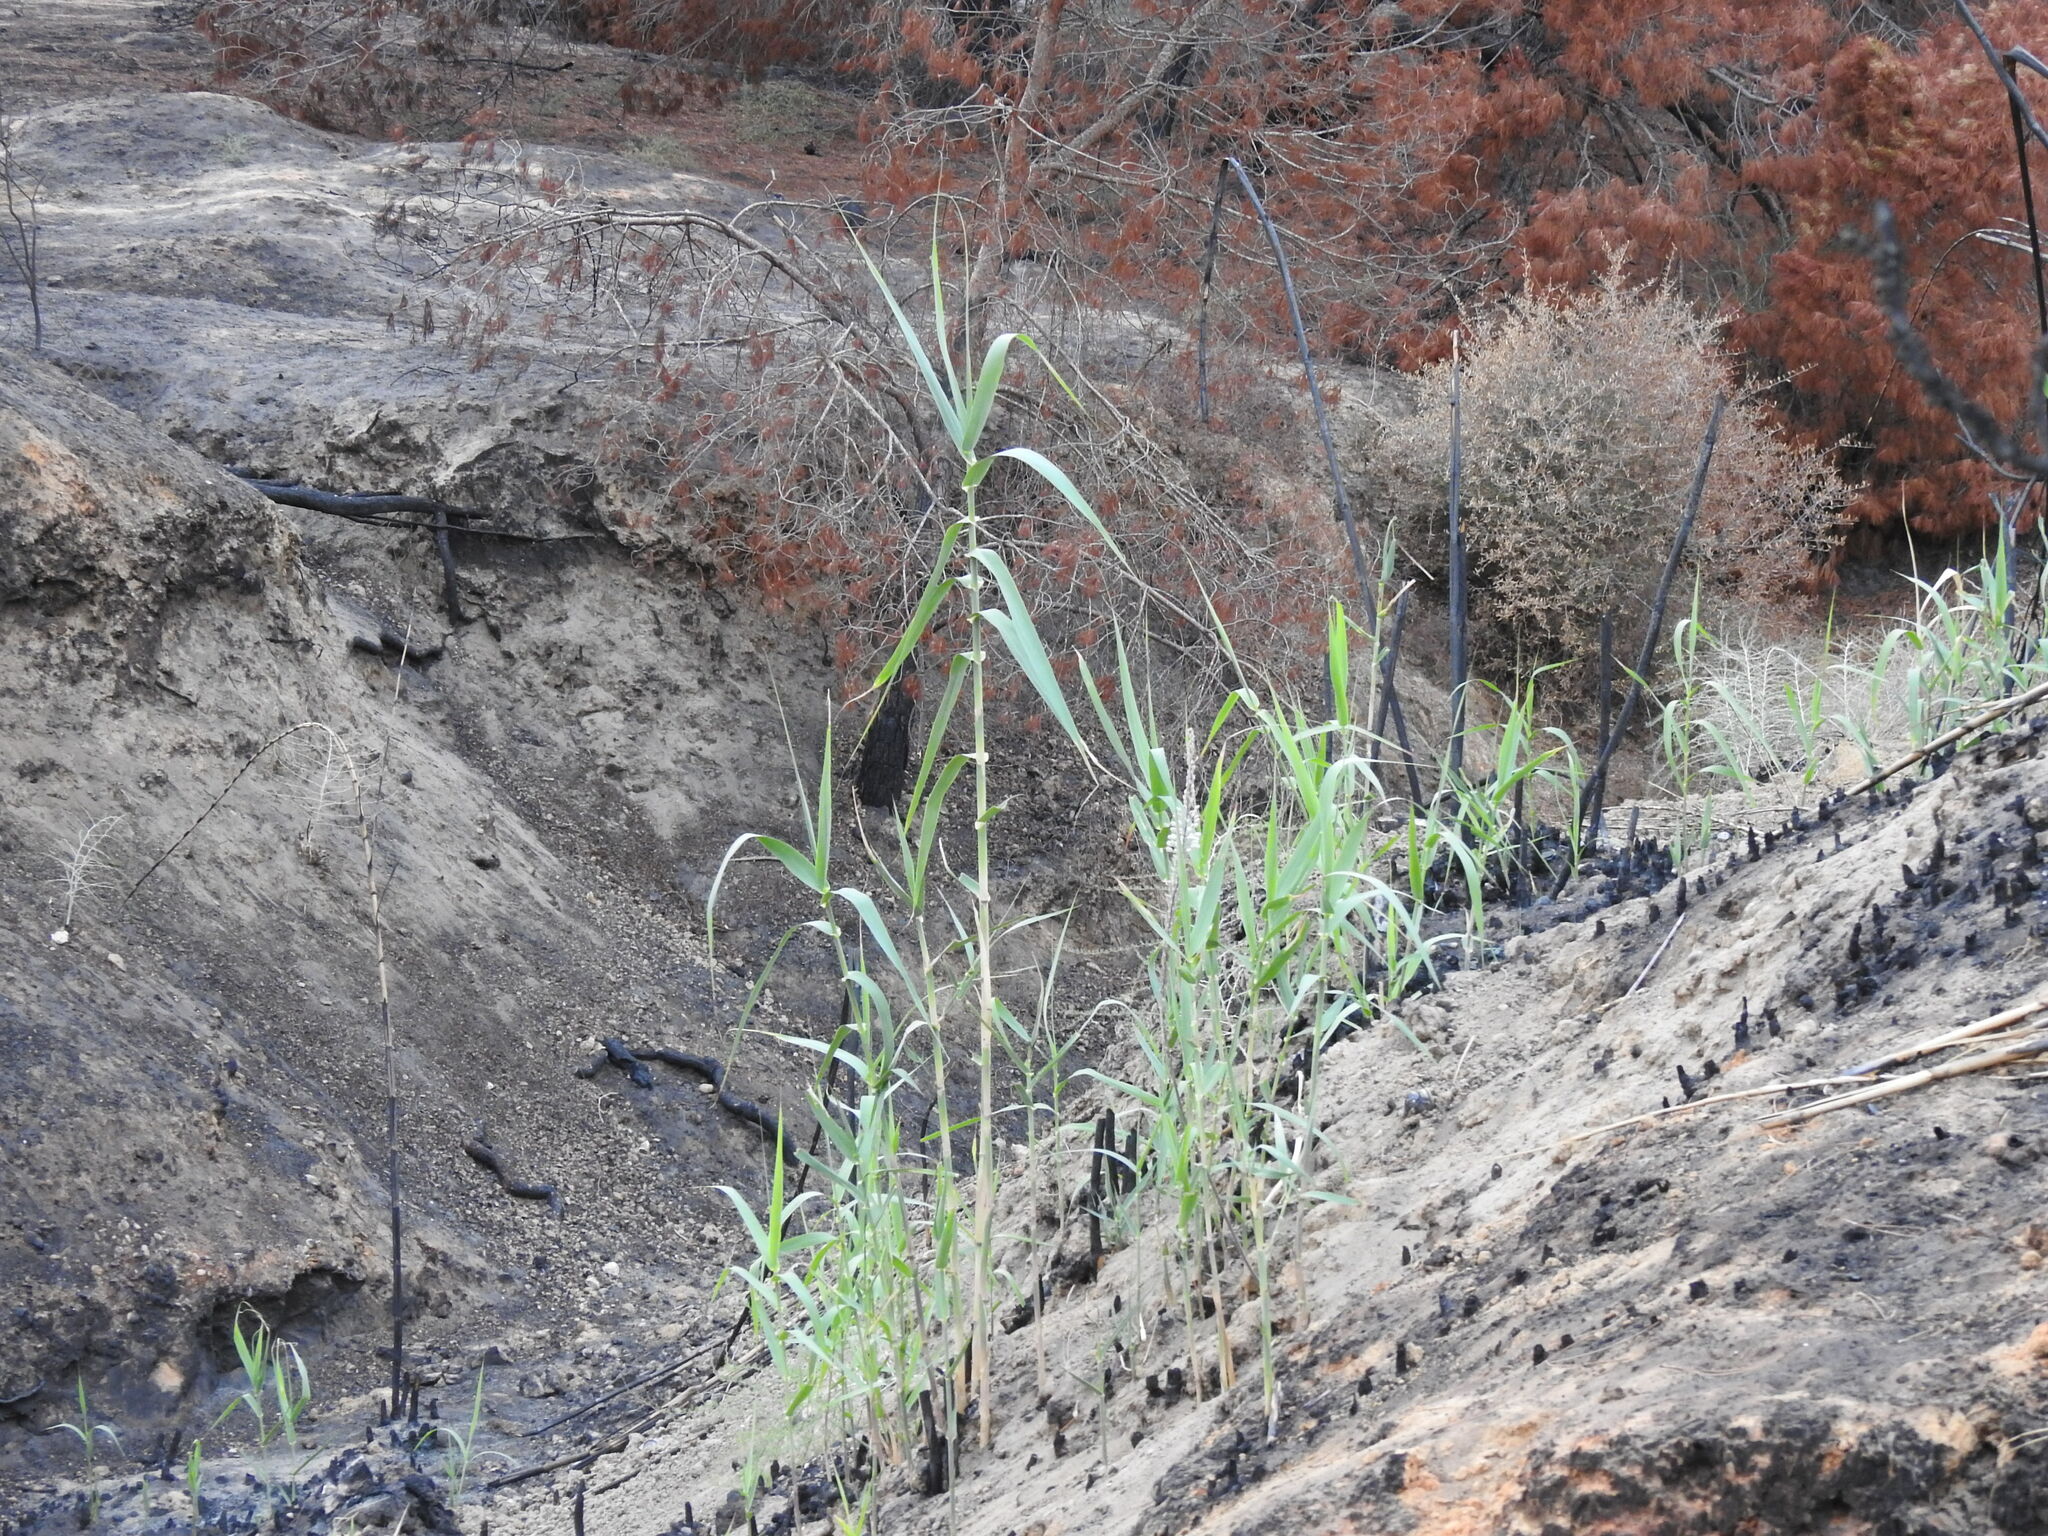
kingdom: Plantae
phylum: Tracheophyta
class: Liliopsida
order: Poales
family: Poaceae
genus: Arundo
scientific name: Arundo donax
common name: Giant reed
